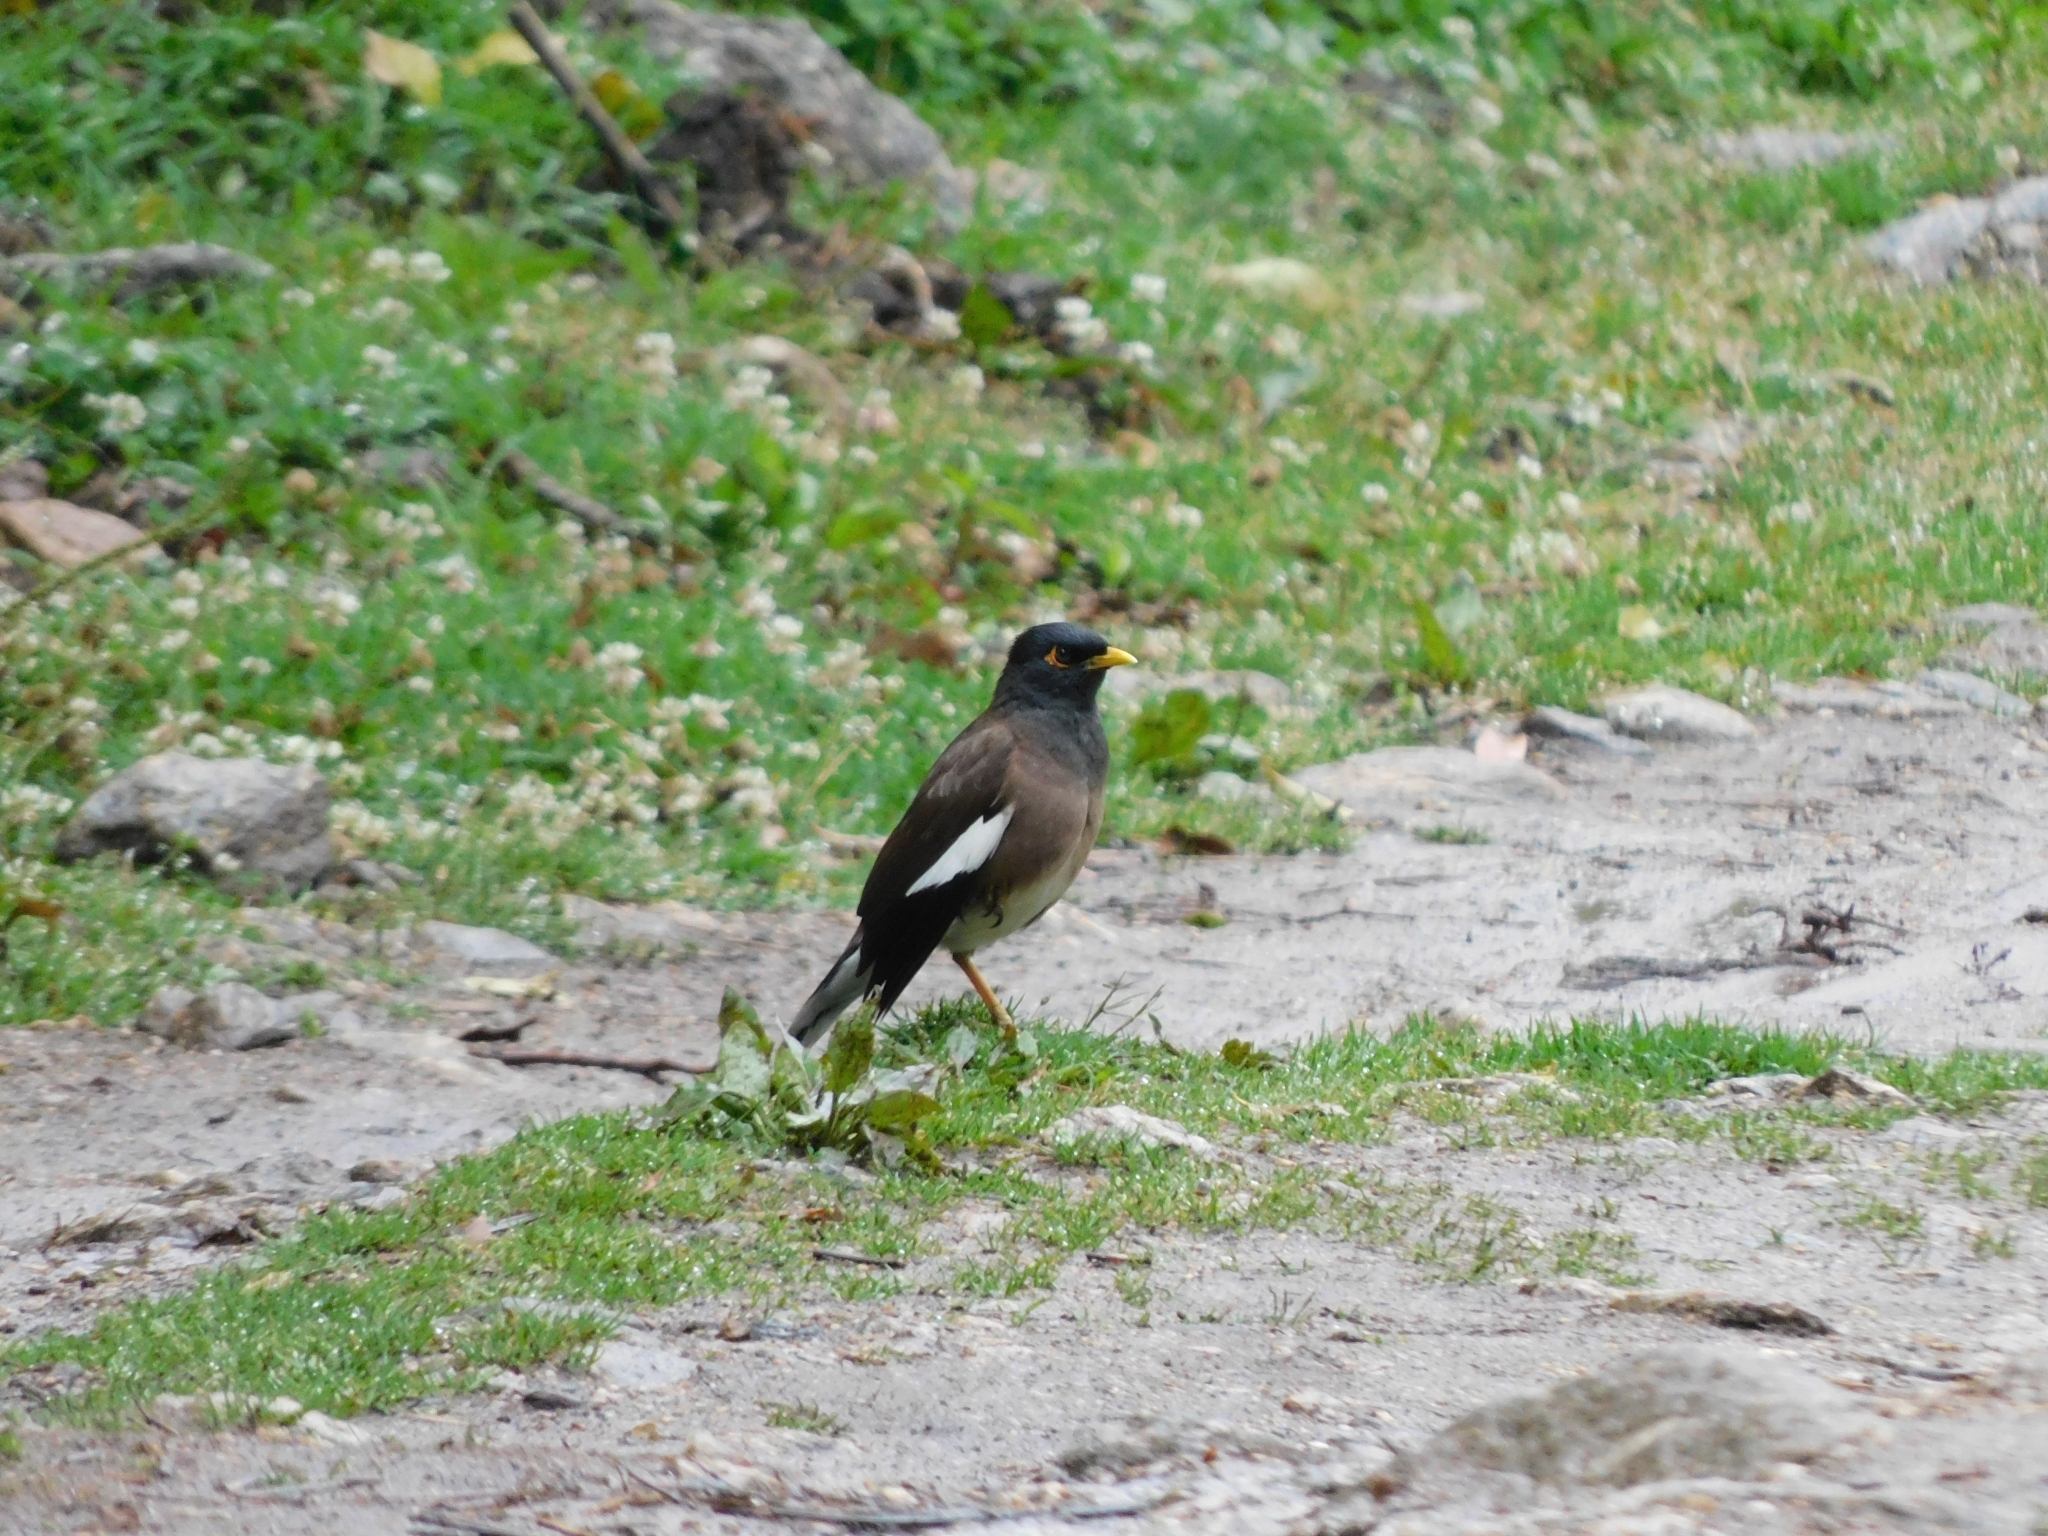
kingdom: Animalia
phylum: Chordata
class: Aves
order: Passeriformes
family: Sturnidae
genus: Acridotheres
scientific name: Acridotheres tristis
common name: Common myna
